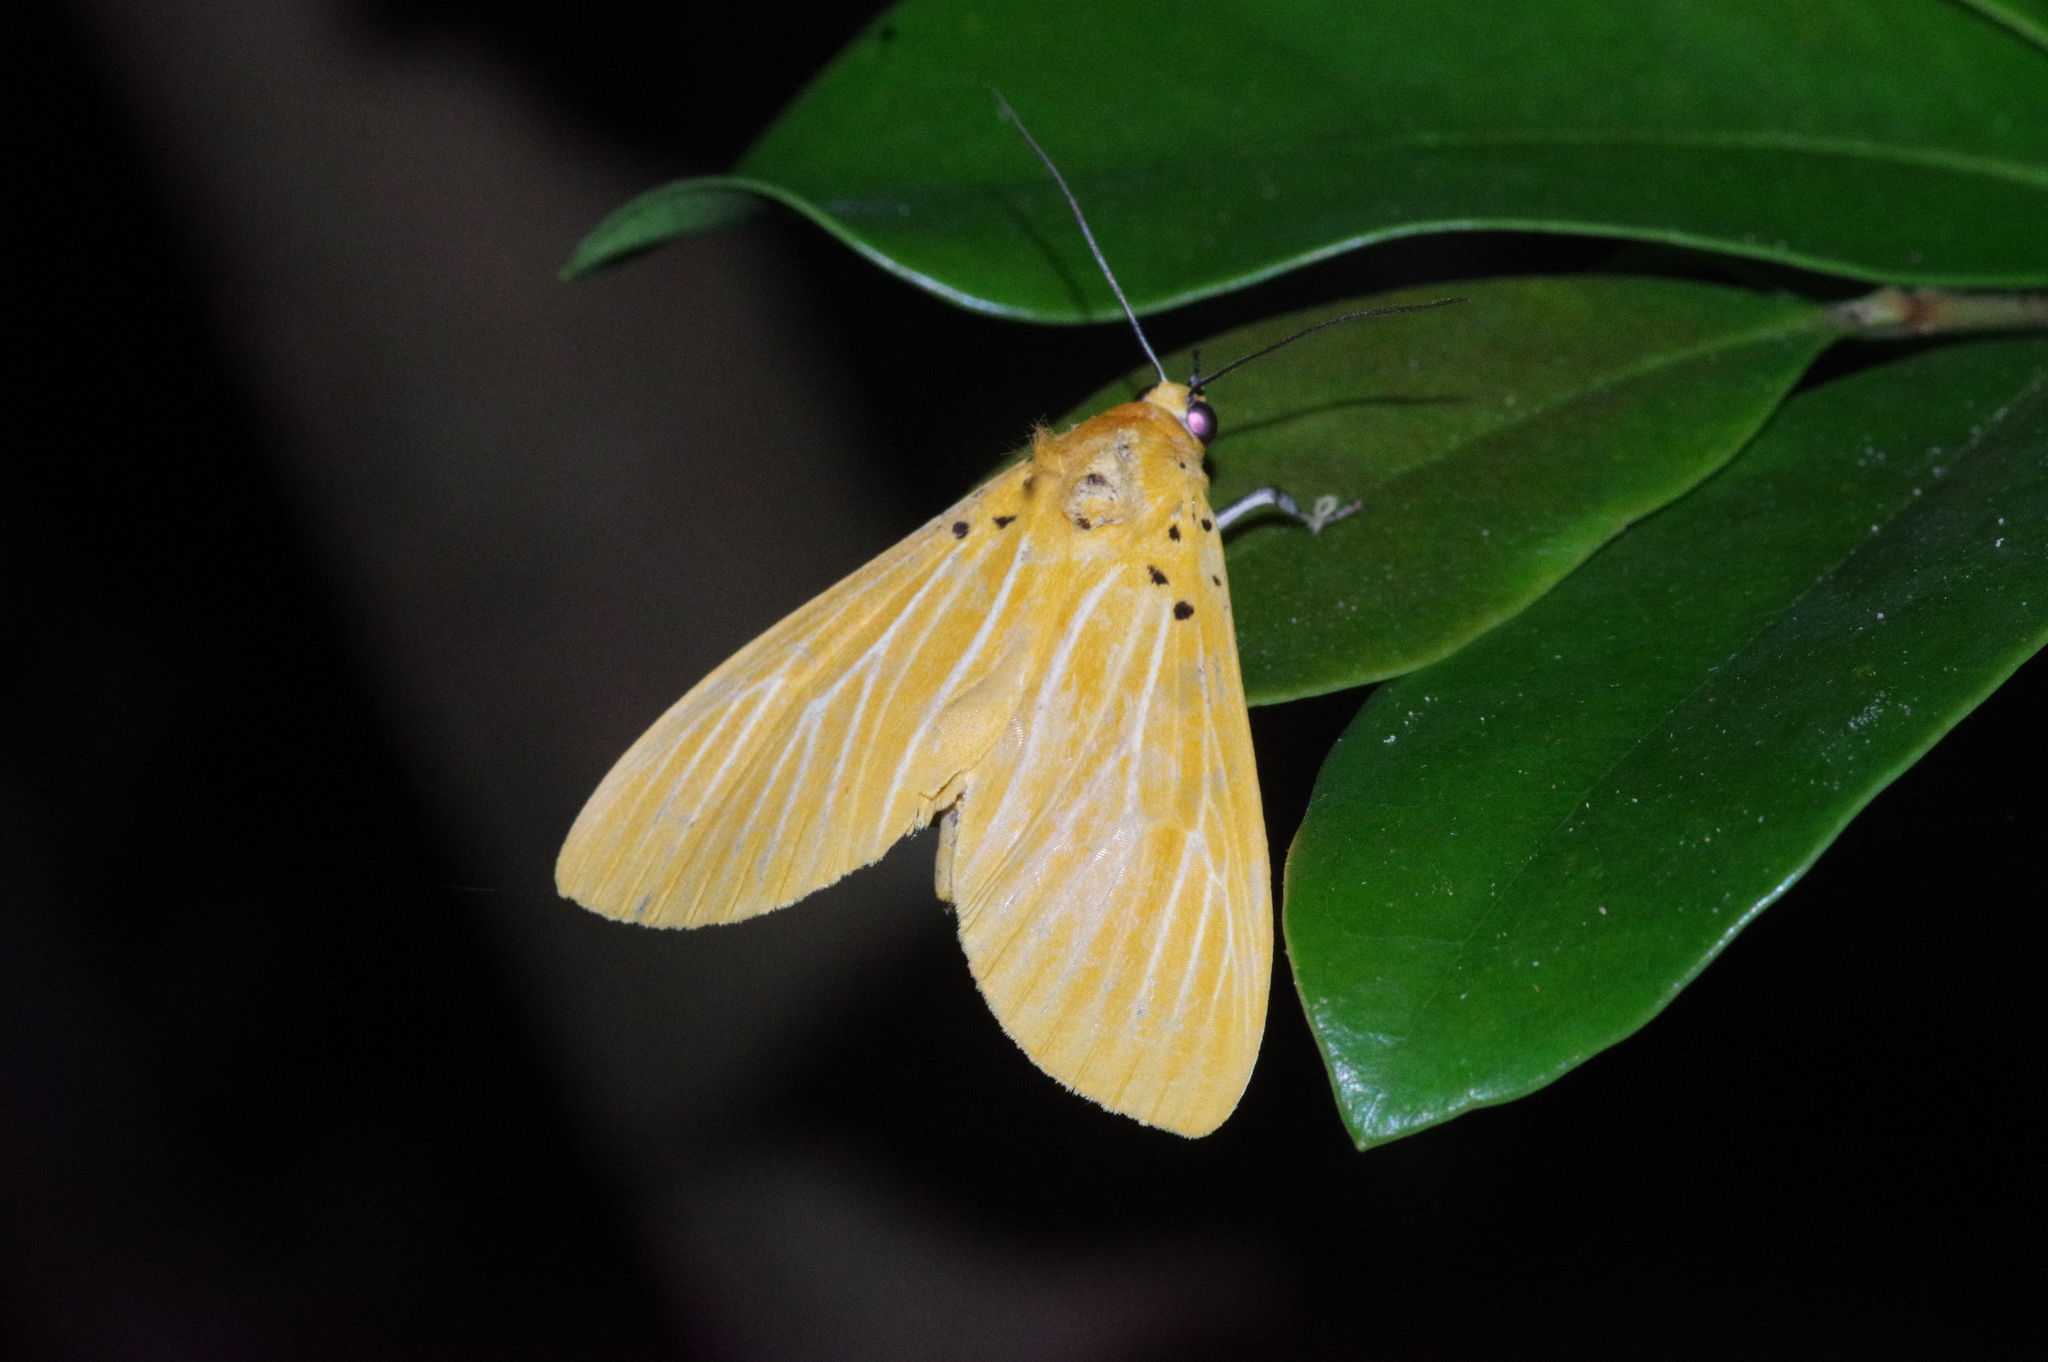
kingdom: Animalia
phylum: Arthropoda
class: Insecta
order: Lepidoptera
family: Erebidae
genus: Asota
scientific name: Asota egens
